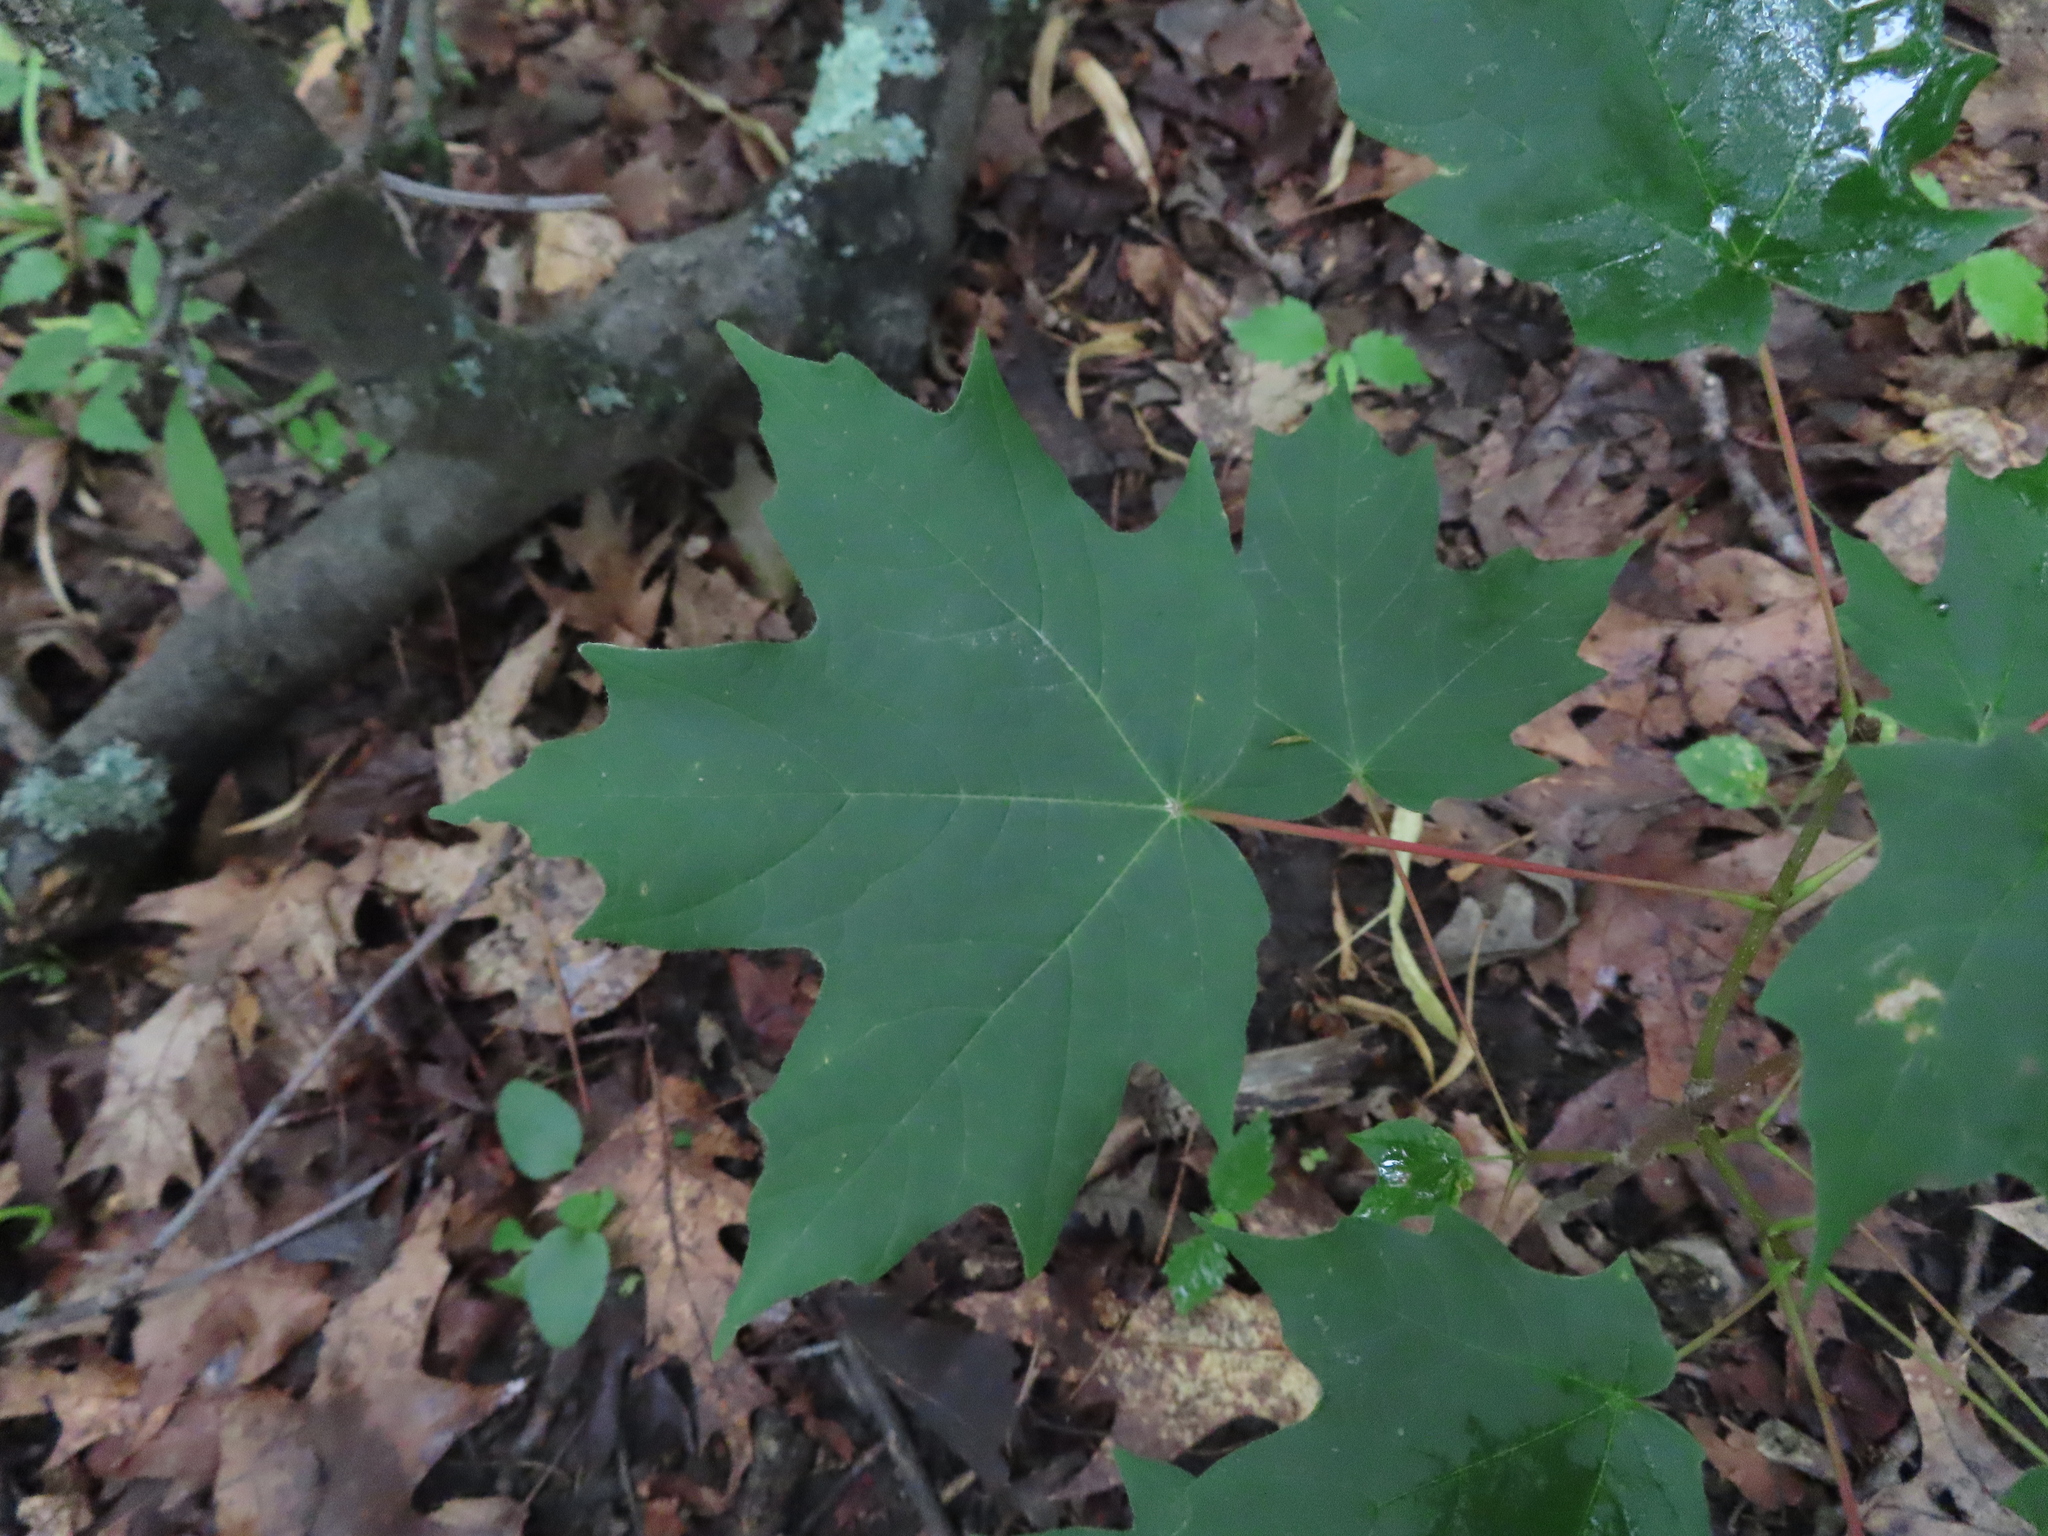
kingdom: Plantae
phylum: Tracheophyta
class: Magnoliopsida
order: Sapindales
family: Sapindaceae
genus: Acer
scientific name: Acer saccharum
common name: Sugar maple
